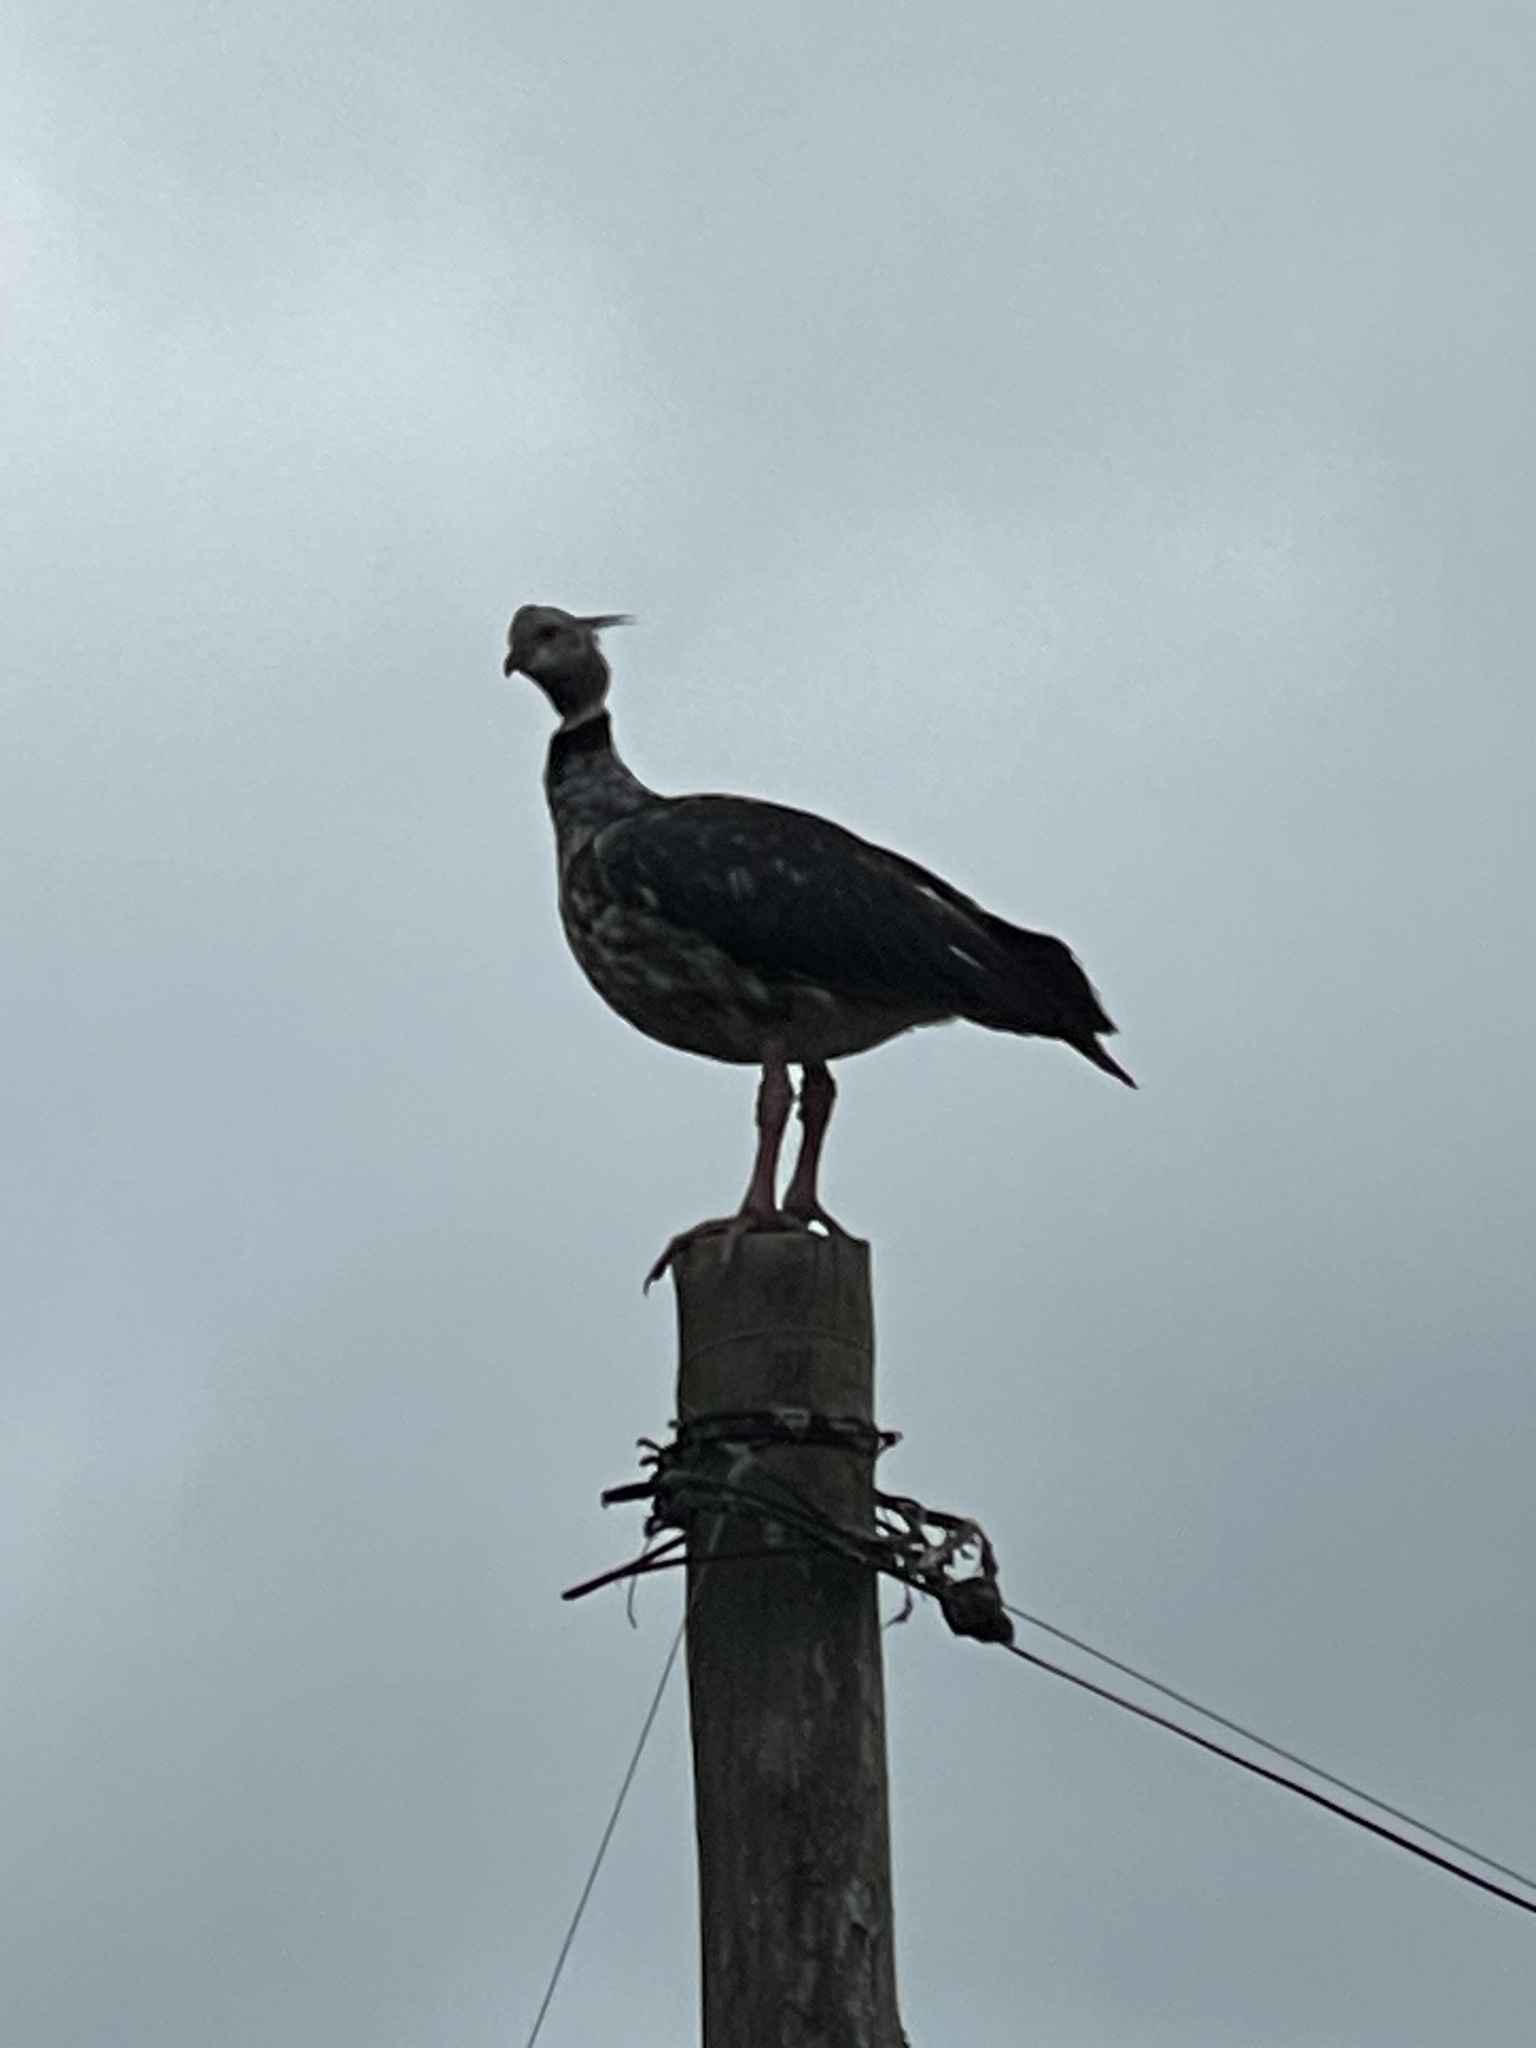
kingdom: Animalia
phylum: Chordata
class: Aves
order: Anseriformes
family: Anhimidae
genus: Chauna
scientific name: Chauna torquata
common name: Southern screamer
